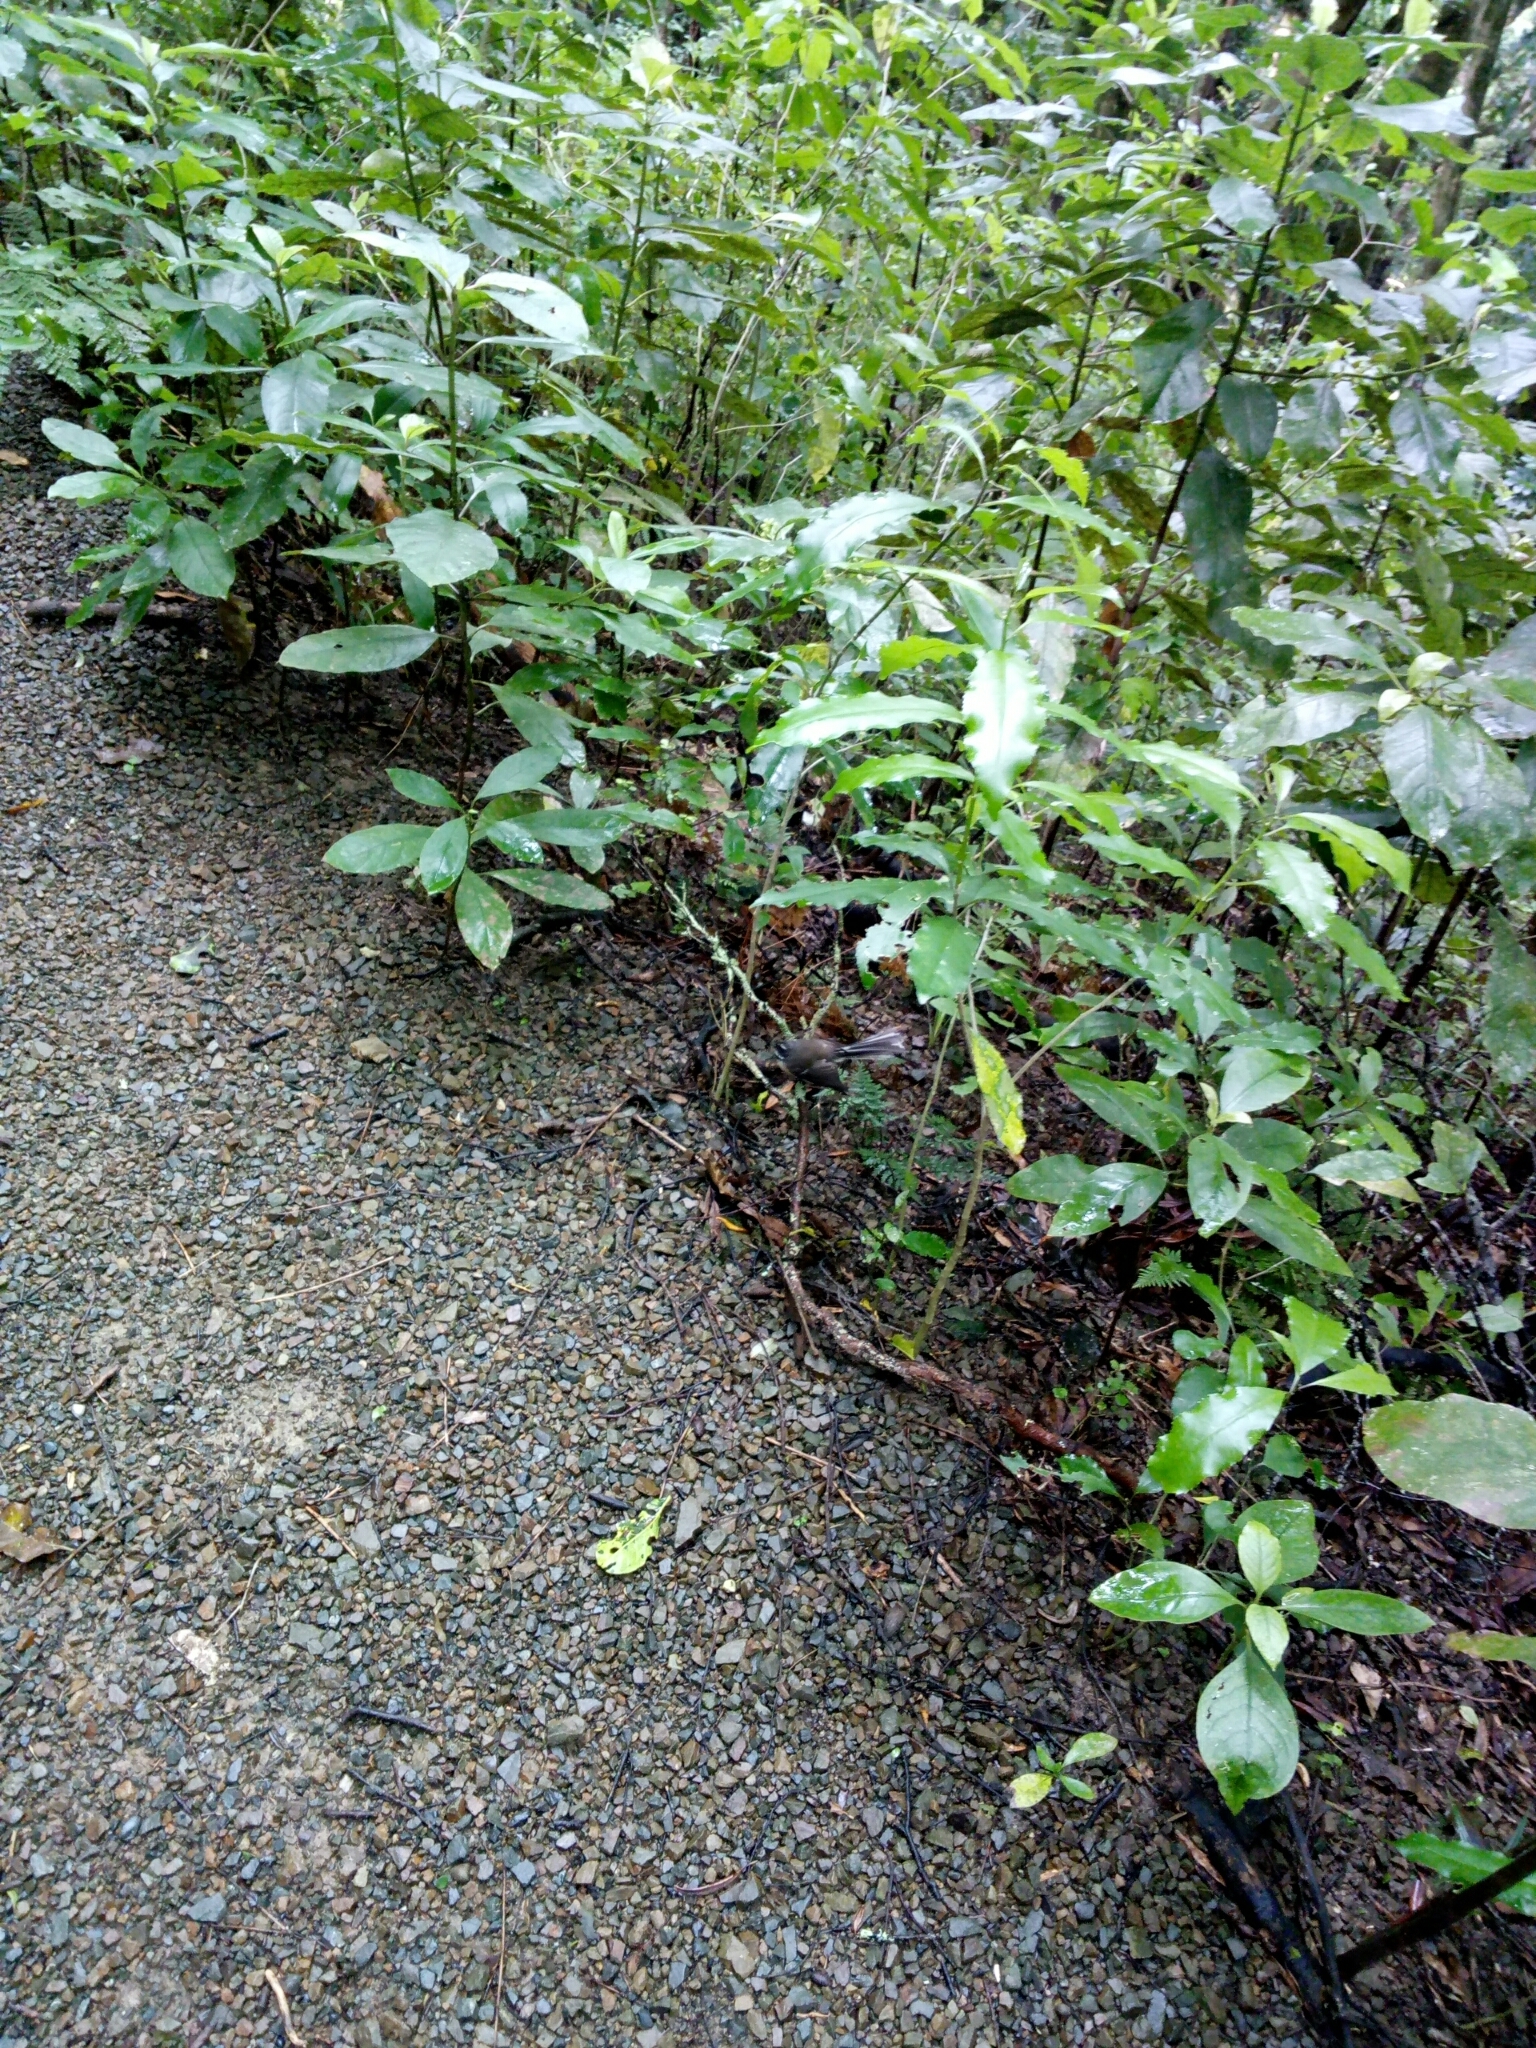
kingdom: Animalia
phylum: Chordata
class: Aves
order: Passeriformes
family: Rhipiduridae
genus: Rhipidura
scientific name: Rhipidura fuliginosa
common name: New zealand fantail
